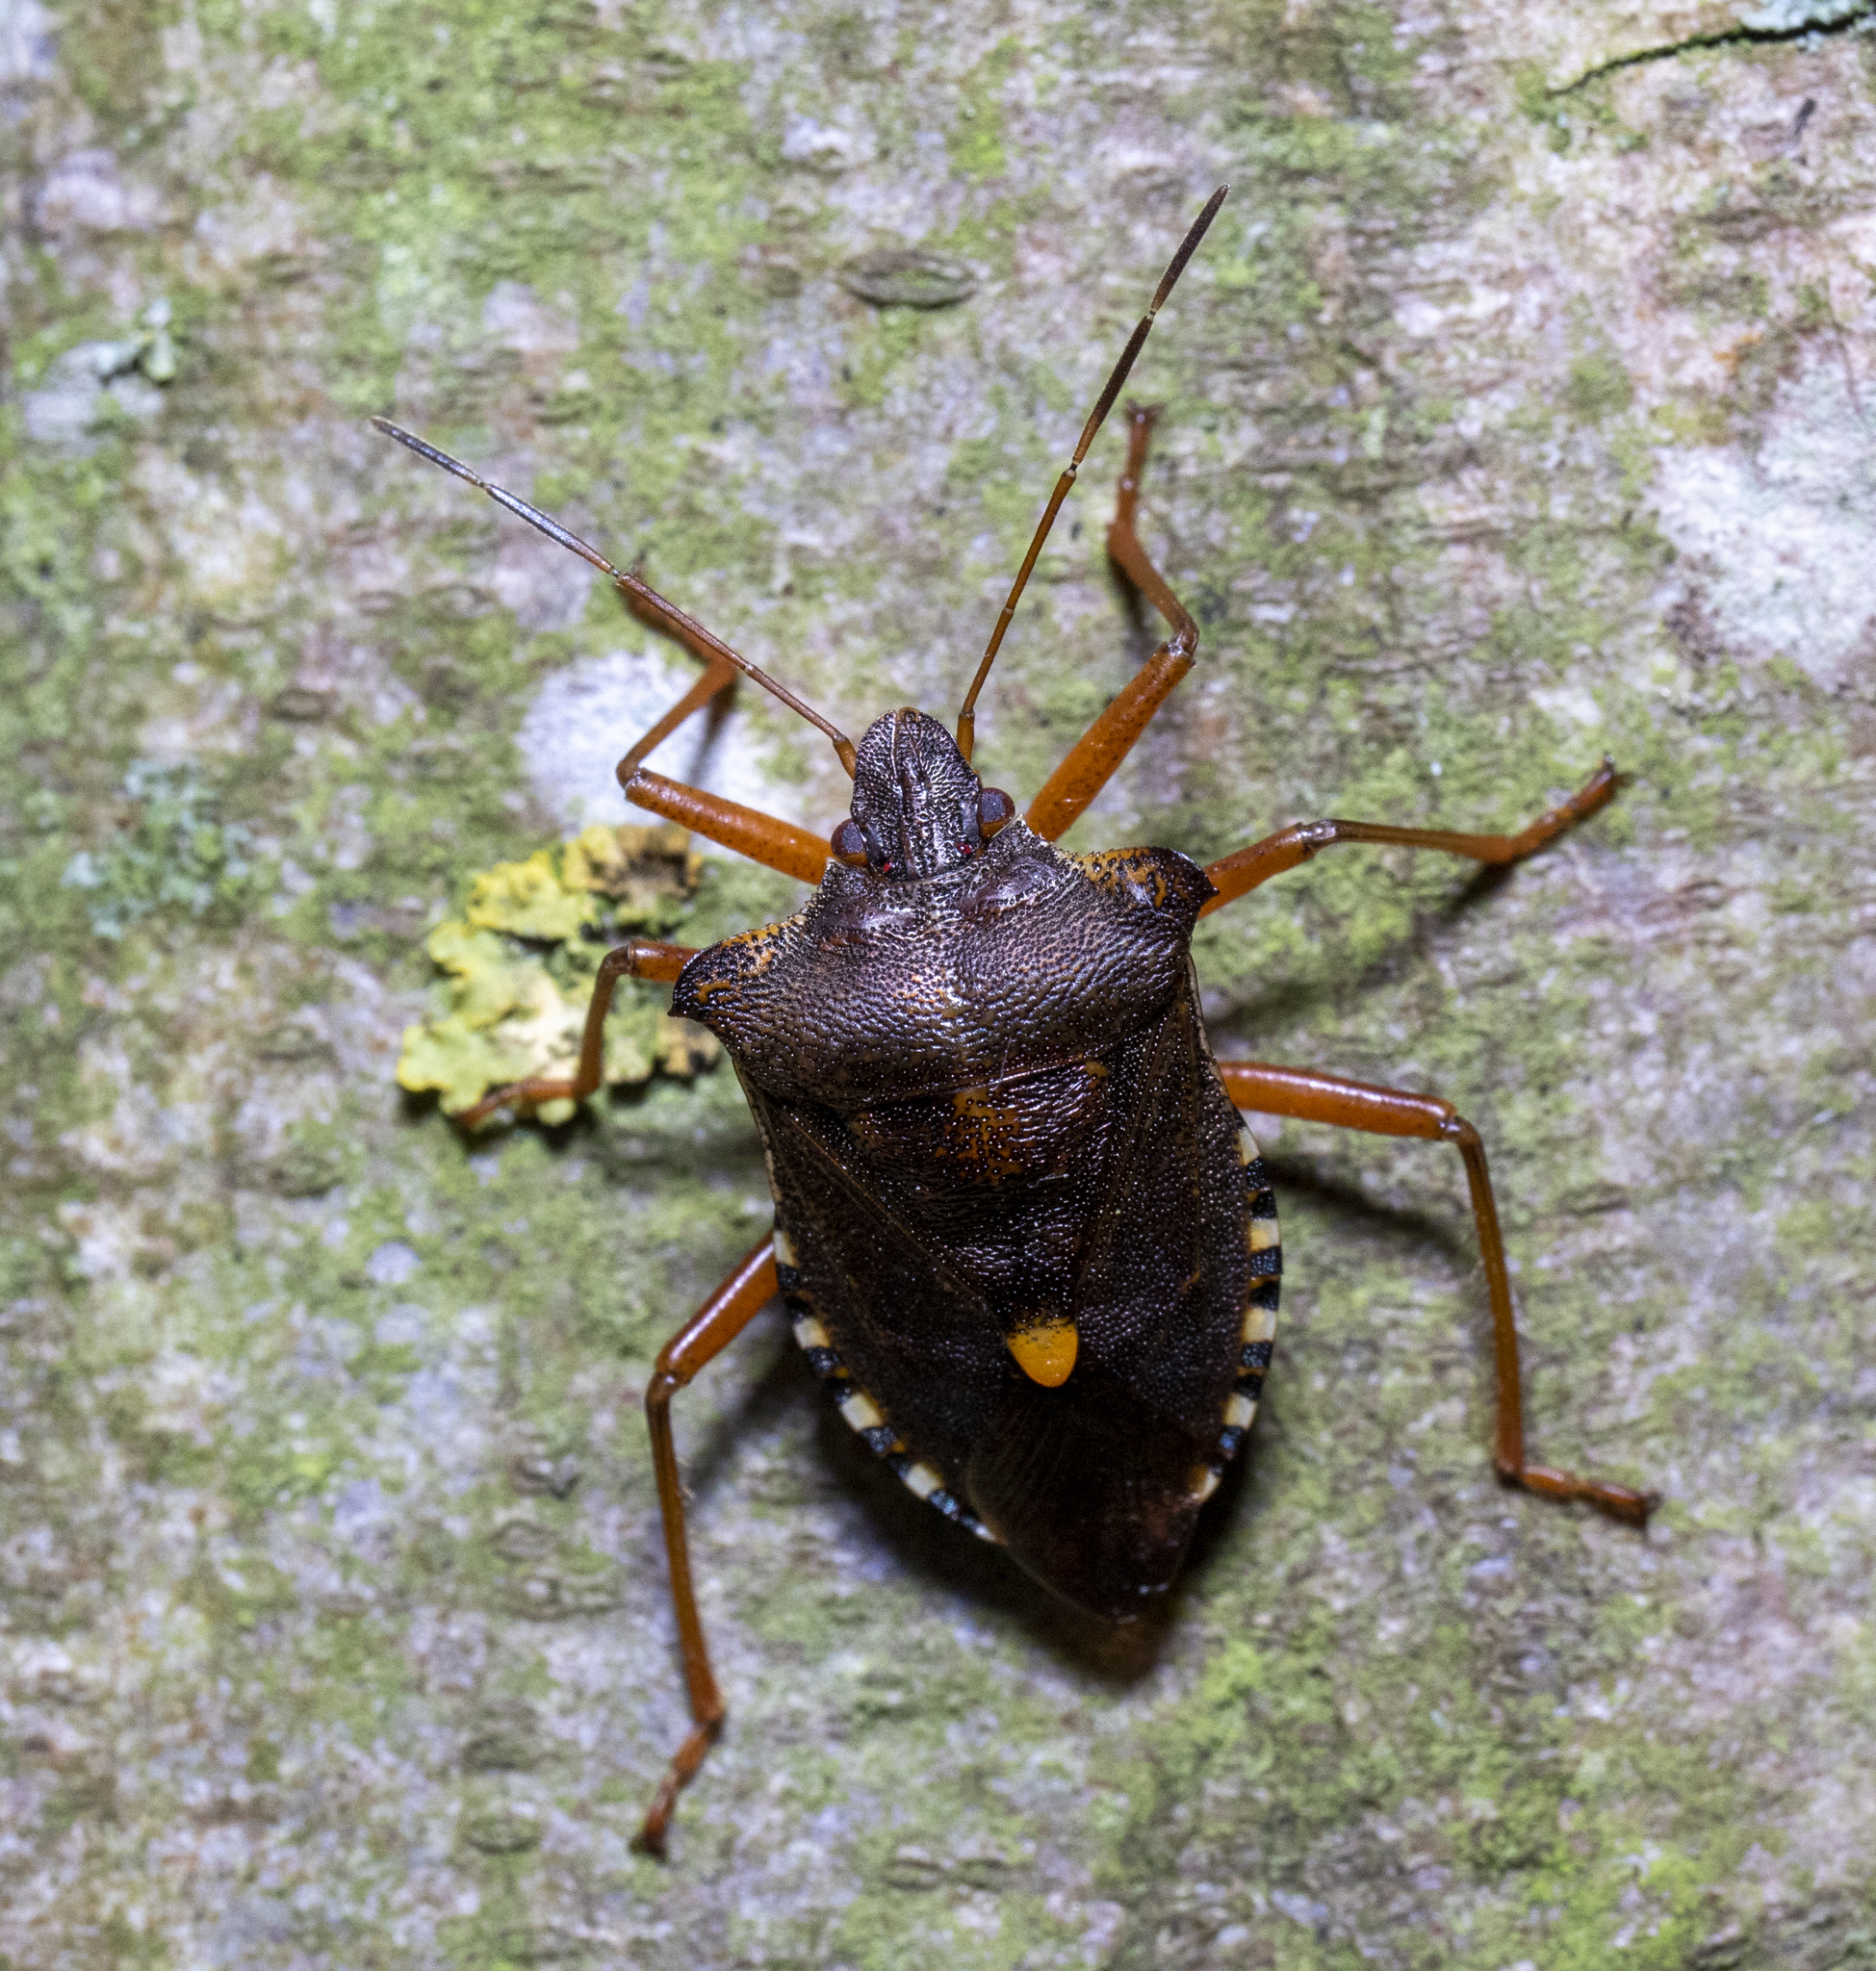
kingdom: Animalia
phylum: Arthropoda
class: Insecta
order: Hemiptera
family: Pentatomidae
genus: Pentatoma
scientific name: Pentatoma rufipes
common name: Forest bug
